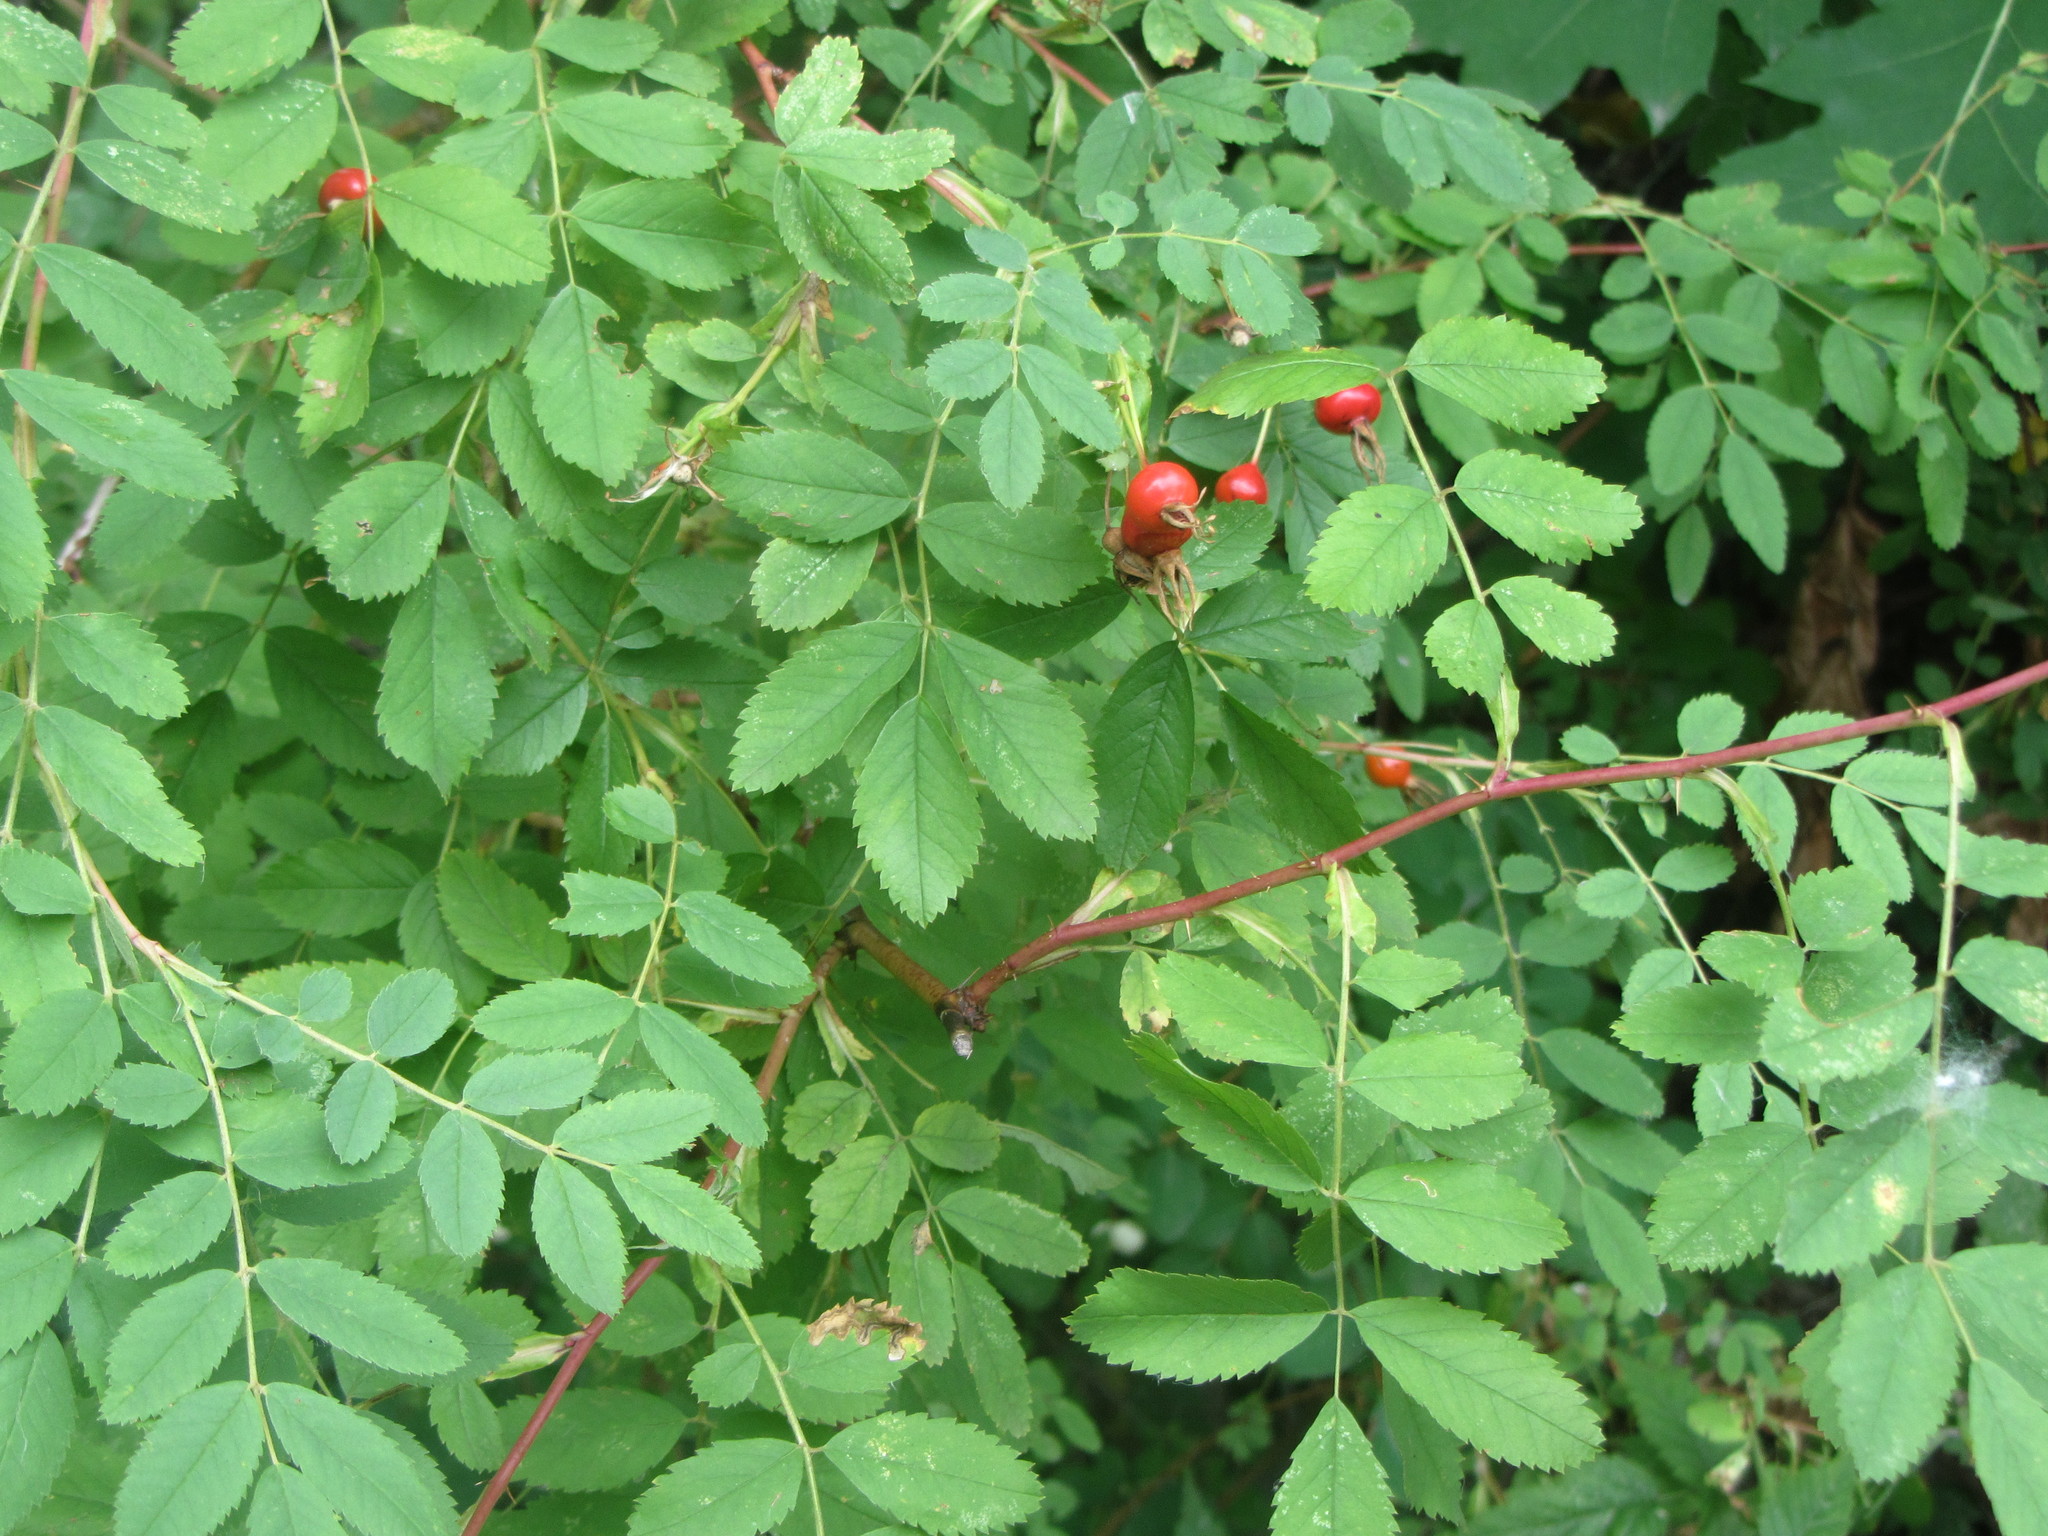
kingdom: Plantae
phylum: Tracheophyta
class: Magnoliopsida
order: Rosales
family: Rosaceae
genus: Rosa
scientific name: Rosa nutkana
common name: Nootka rose
